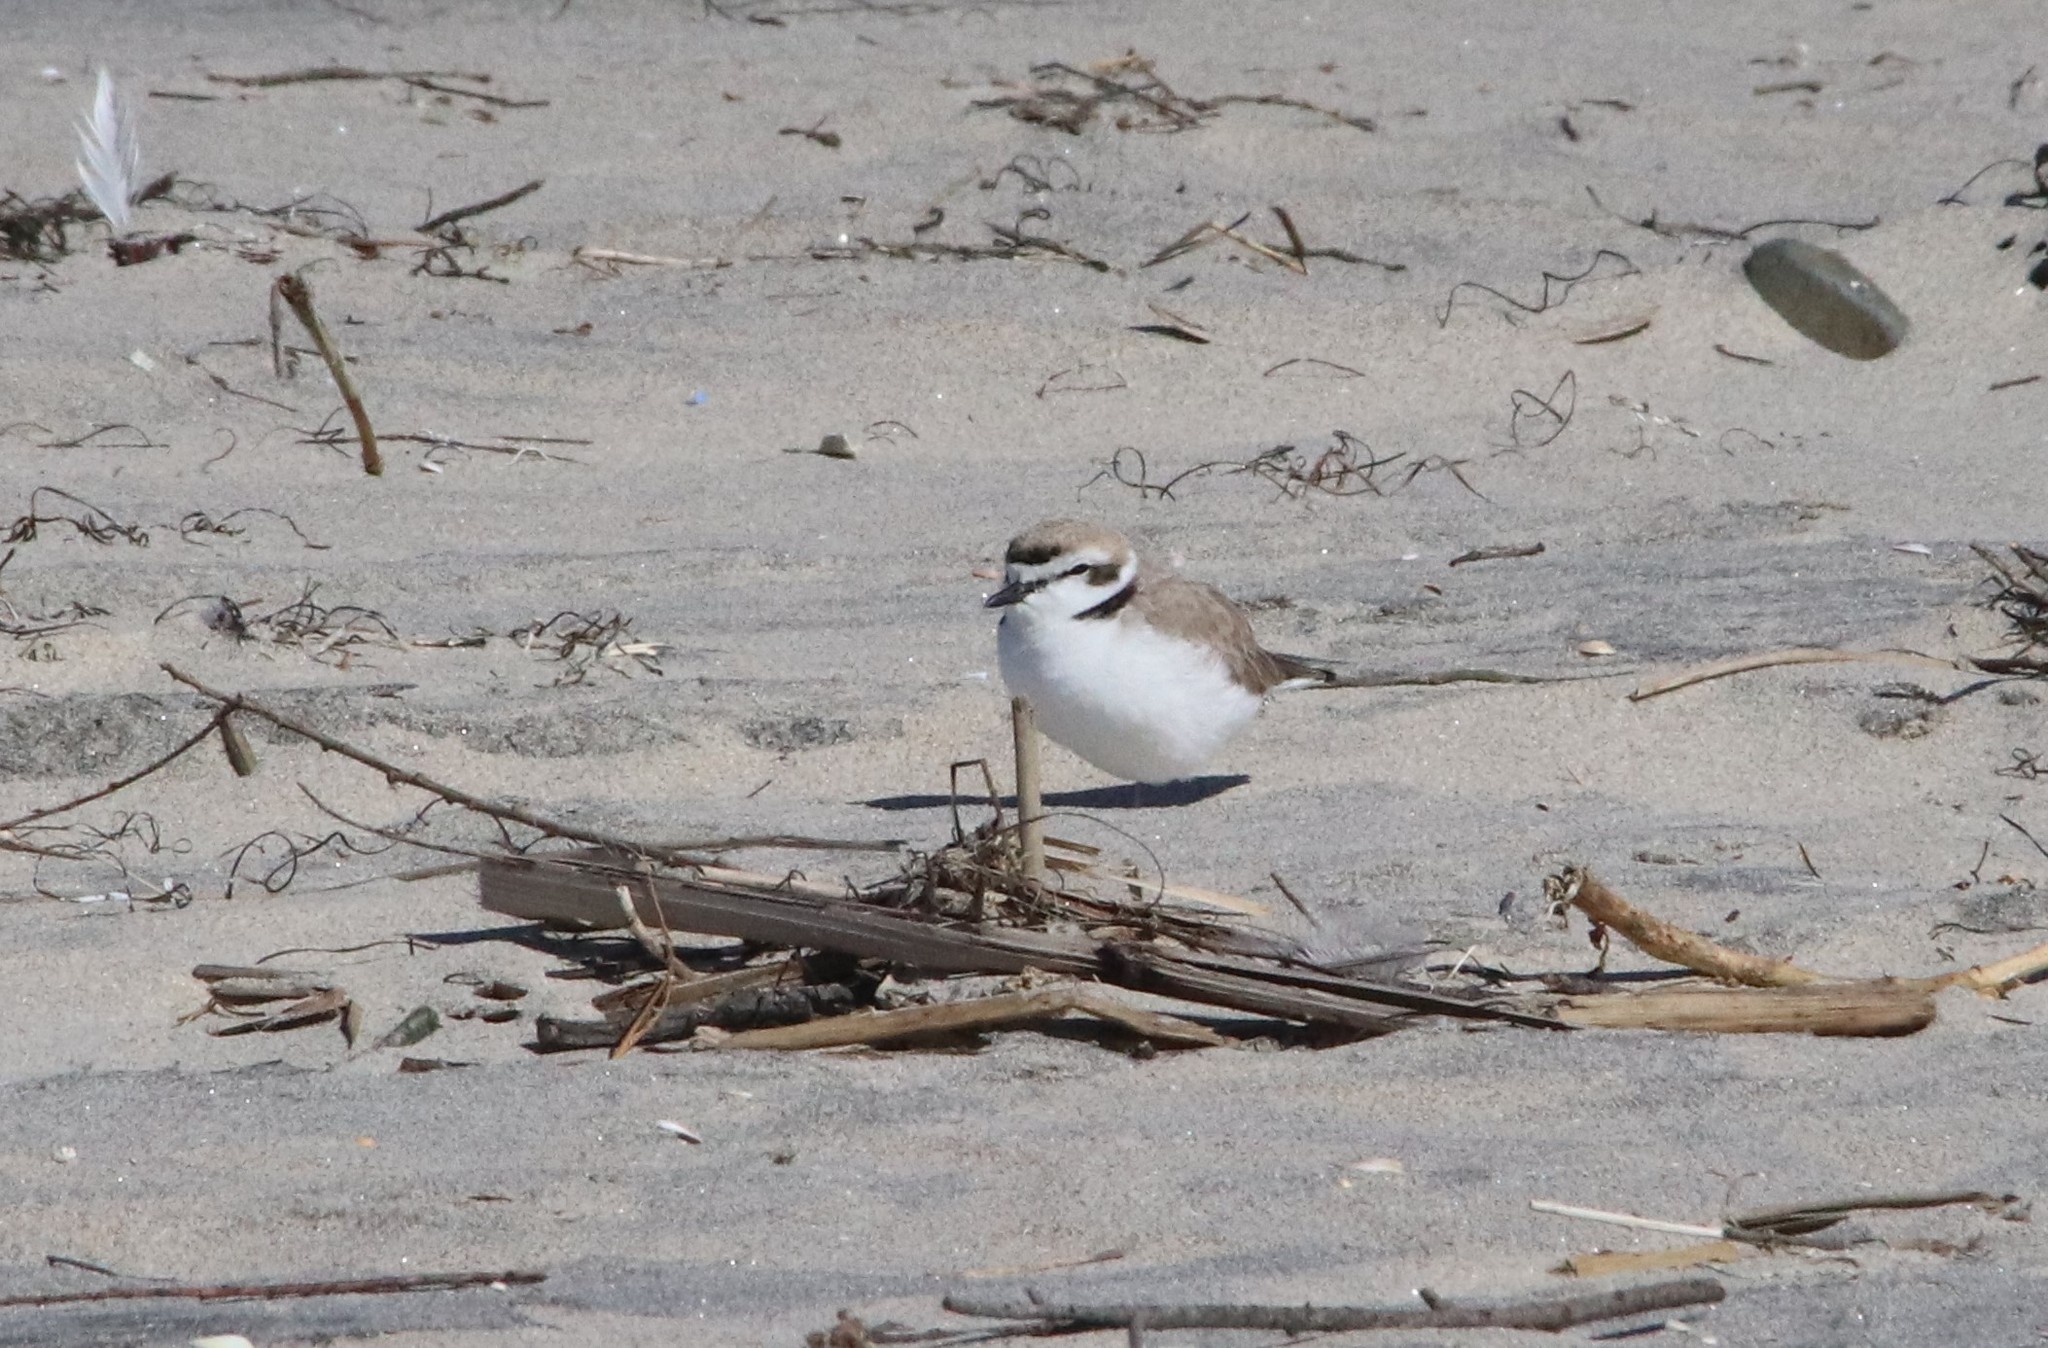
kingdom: Animalia
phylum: Chordata
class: Aves
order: Charadriiformes
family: Charadriidae
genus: Anarhynchus
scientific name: Anarhynchus
